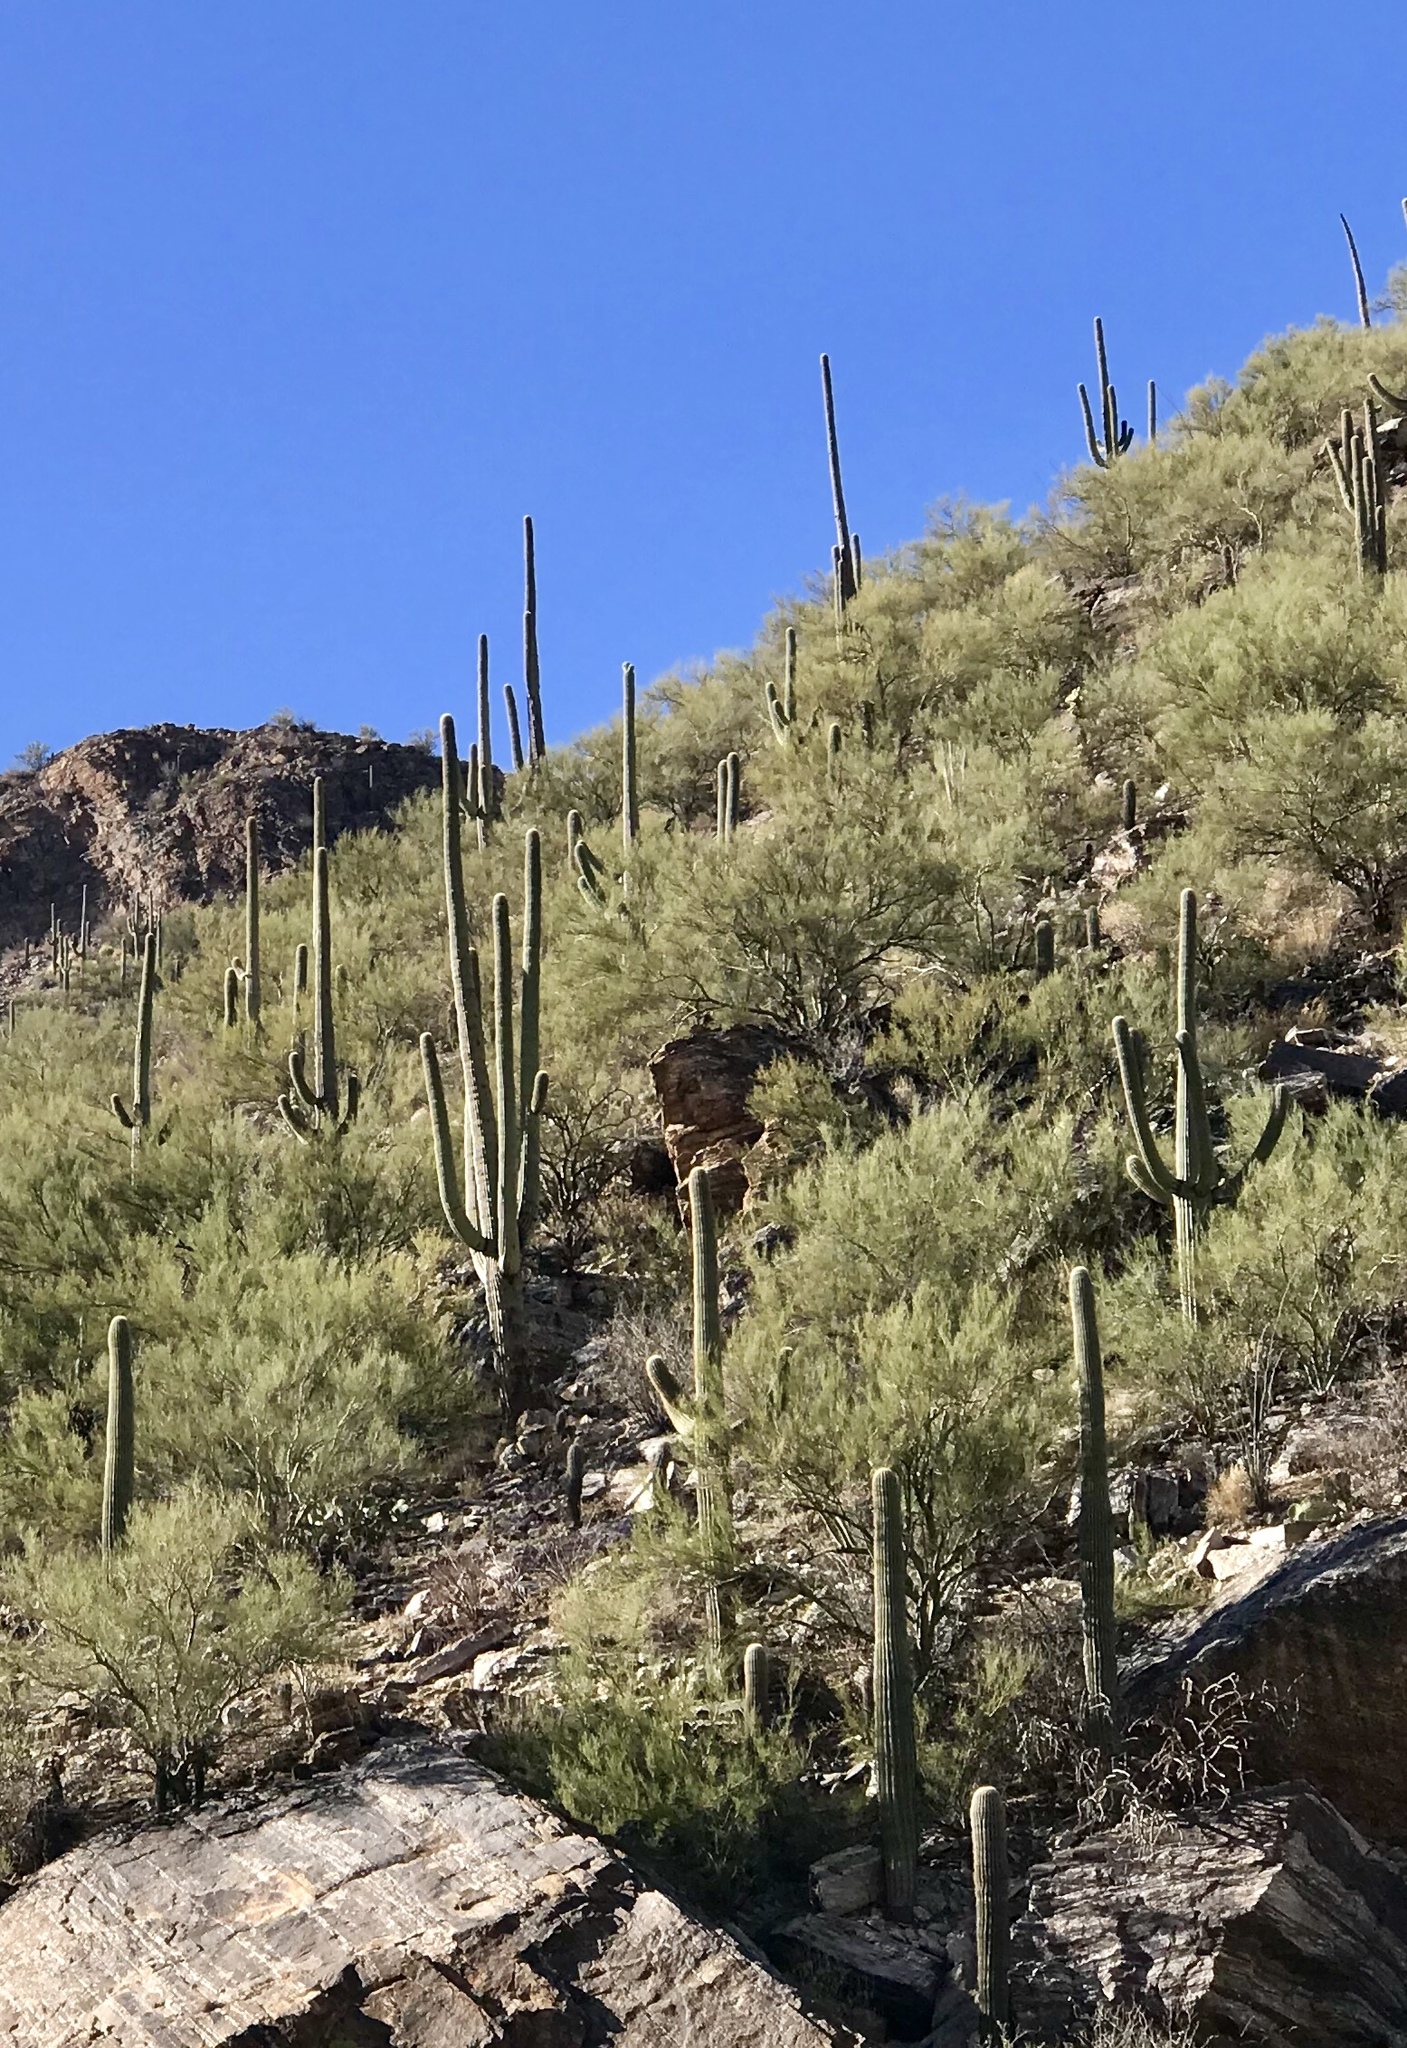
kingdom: Plantae
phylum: Tracheophyta
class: Magnoliopsida
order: Caryophyllales
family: Cactaceae
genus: Carnegiea
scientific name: Carnegiea gigantea
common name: Saguaro
